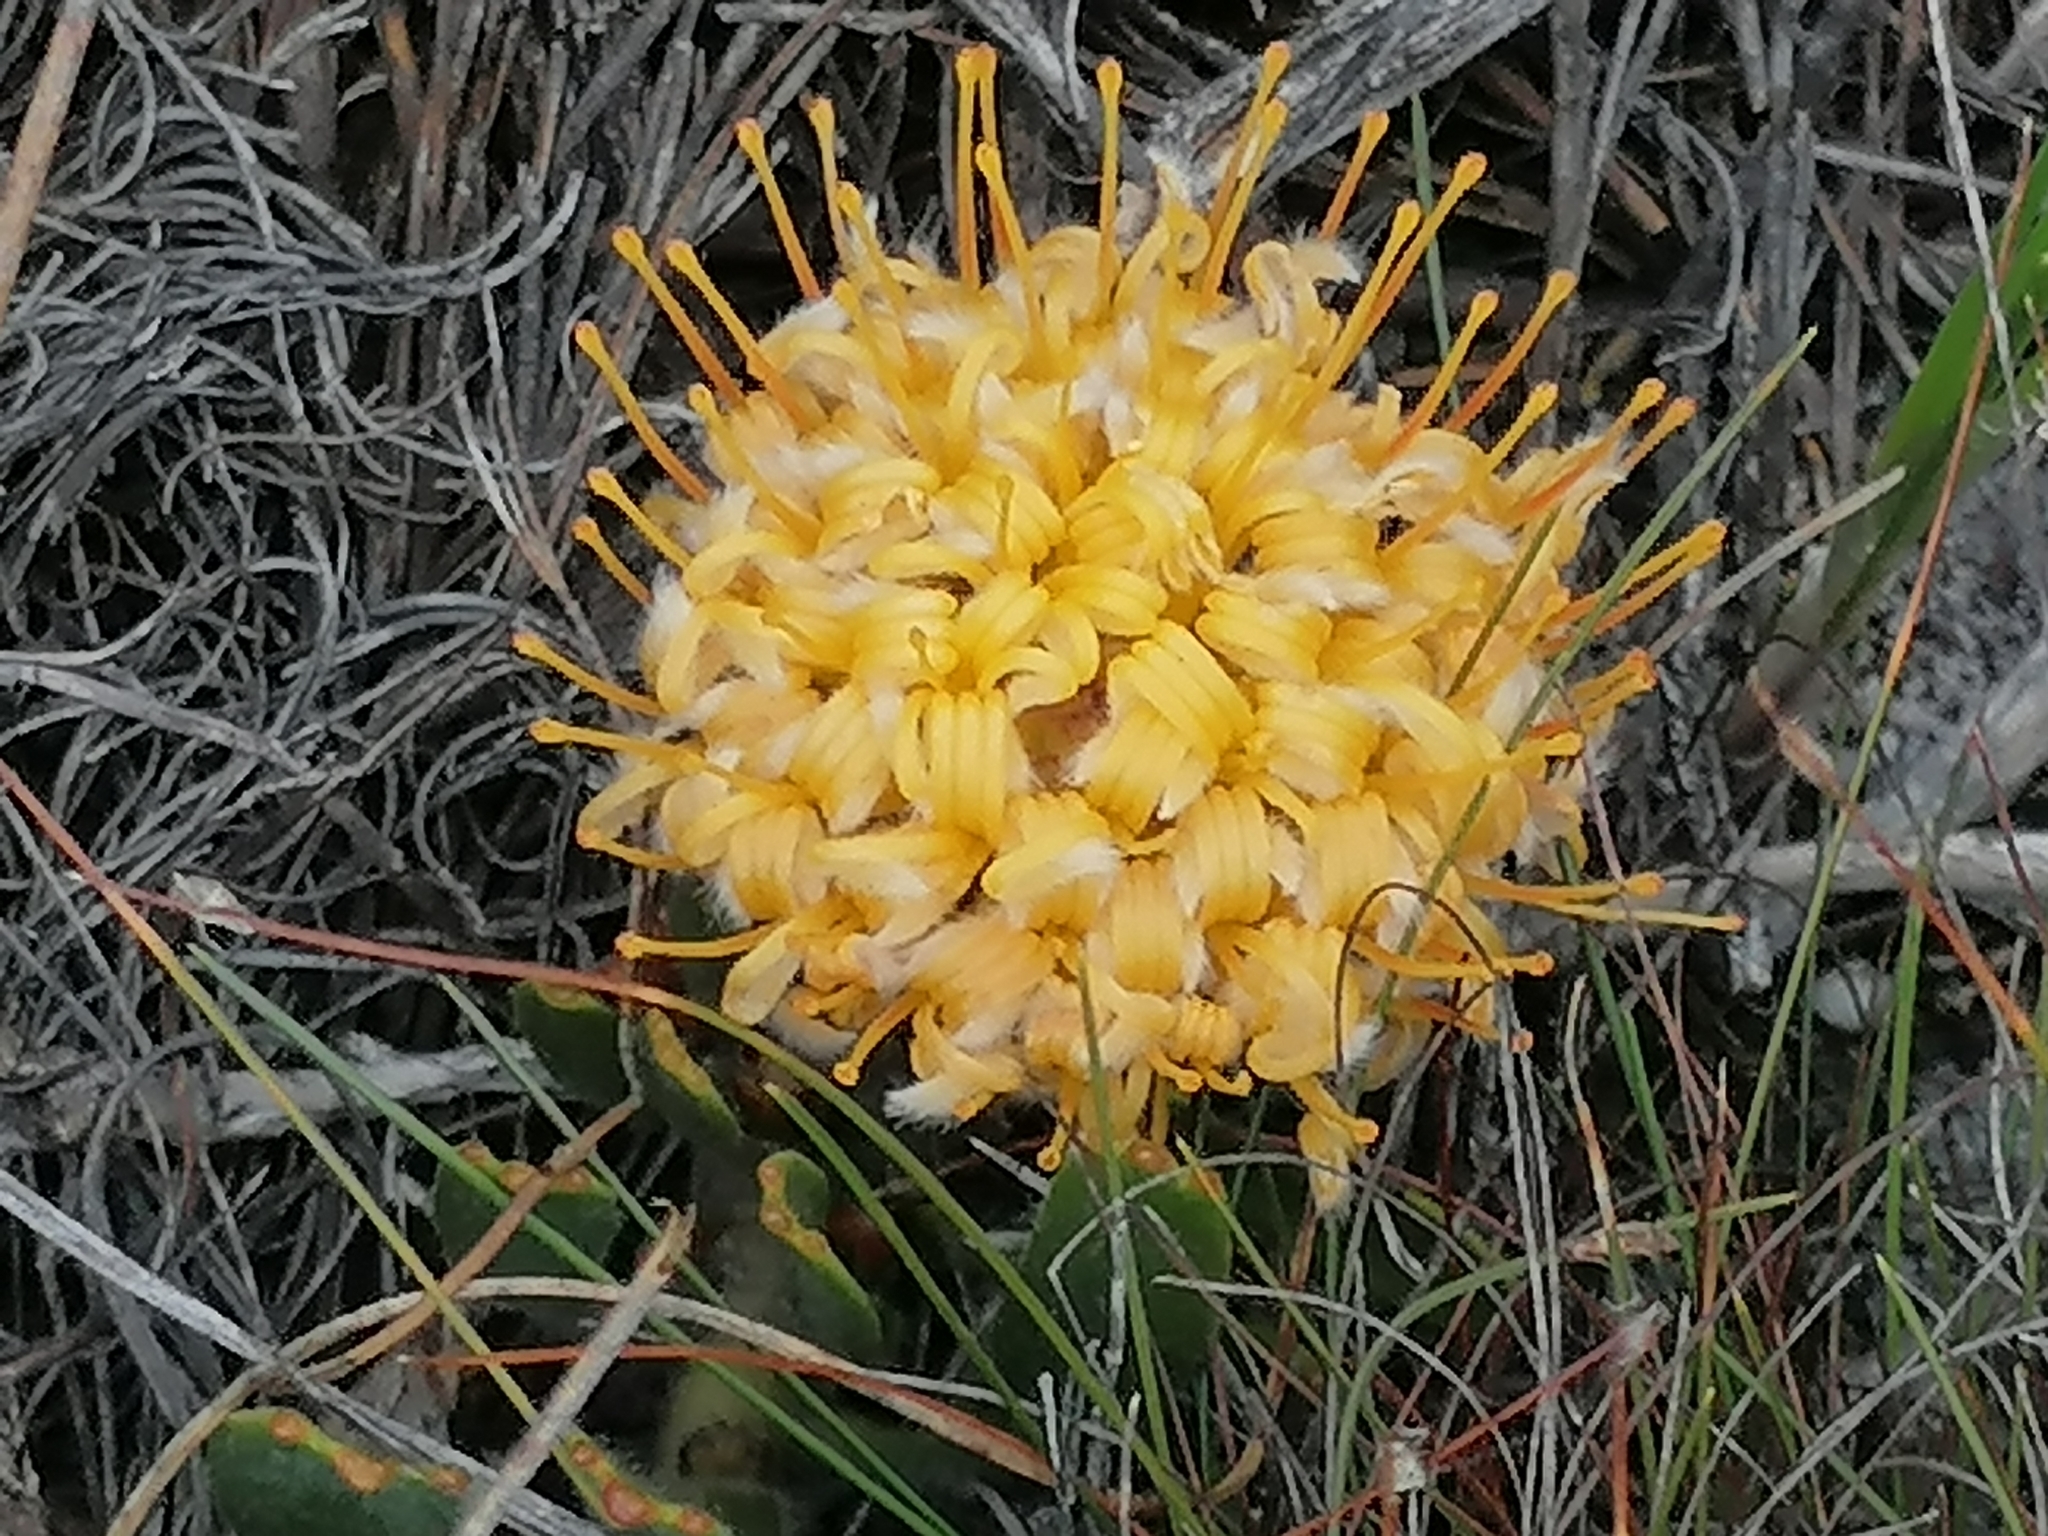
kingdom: Plantae
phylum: Tracheophyta
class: Magnoliopsida
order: Proteales
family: Proteaceae
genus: Leucospermum
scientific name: Leucospermum hypophyllocarpodendron
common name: Snakestem pincushion
